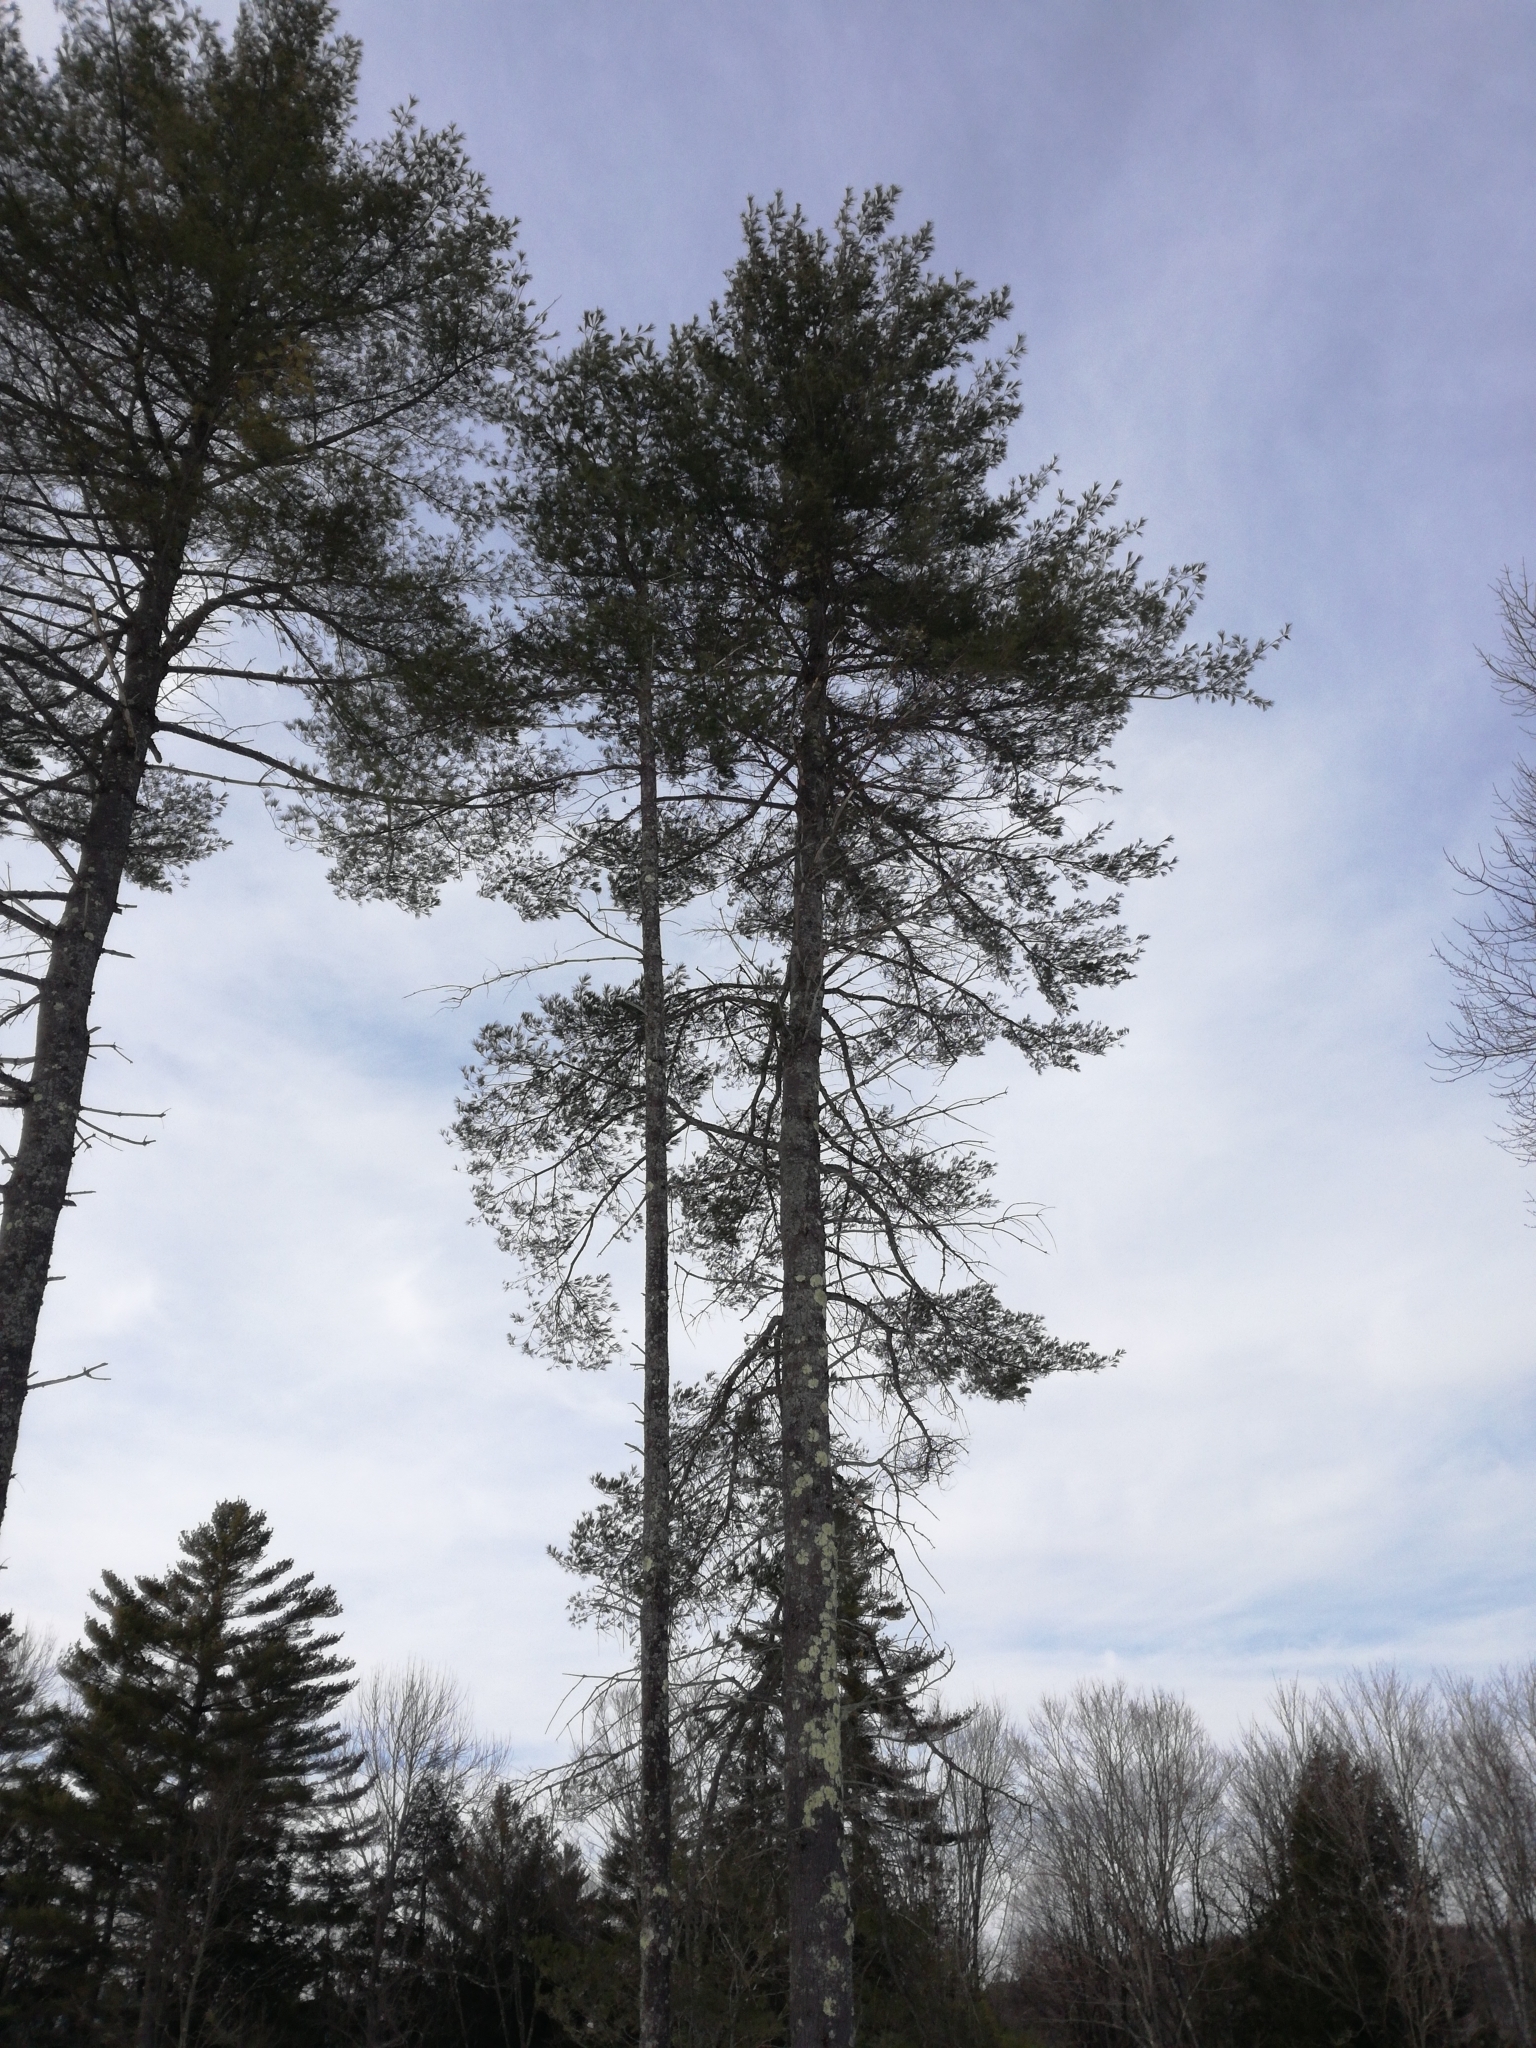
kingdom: Plantae
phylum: Tracheophyta
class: Pinopsida
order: Pinales
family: Pinaceae
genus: Pinus
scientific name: Pinus strobus
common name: Weymouth pine
